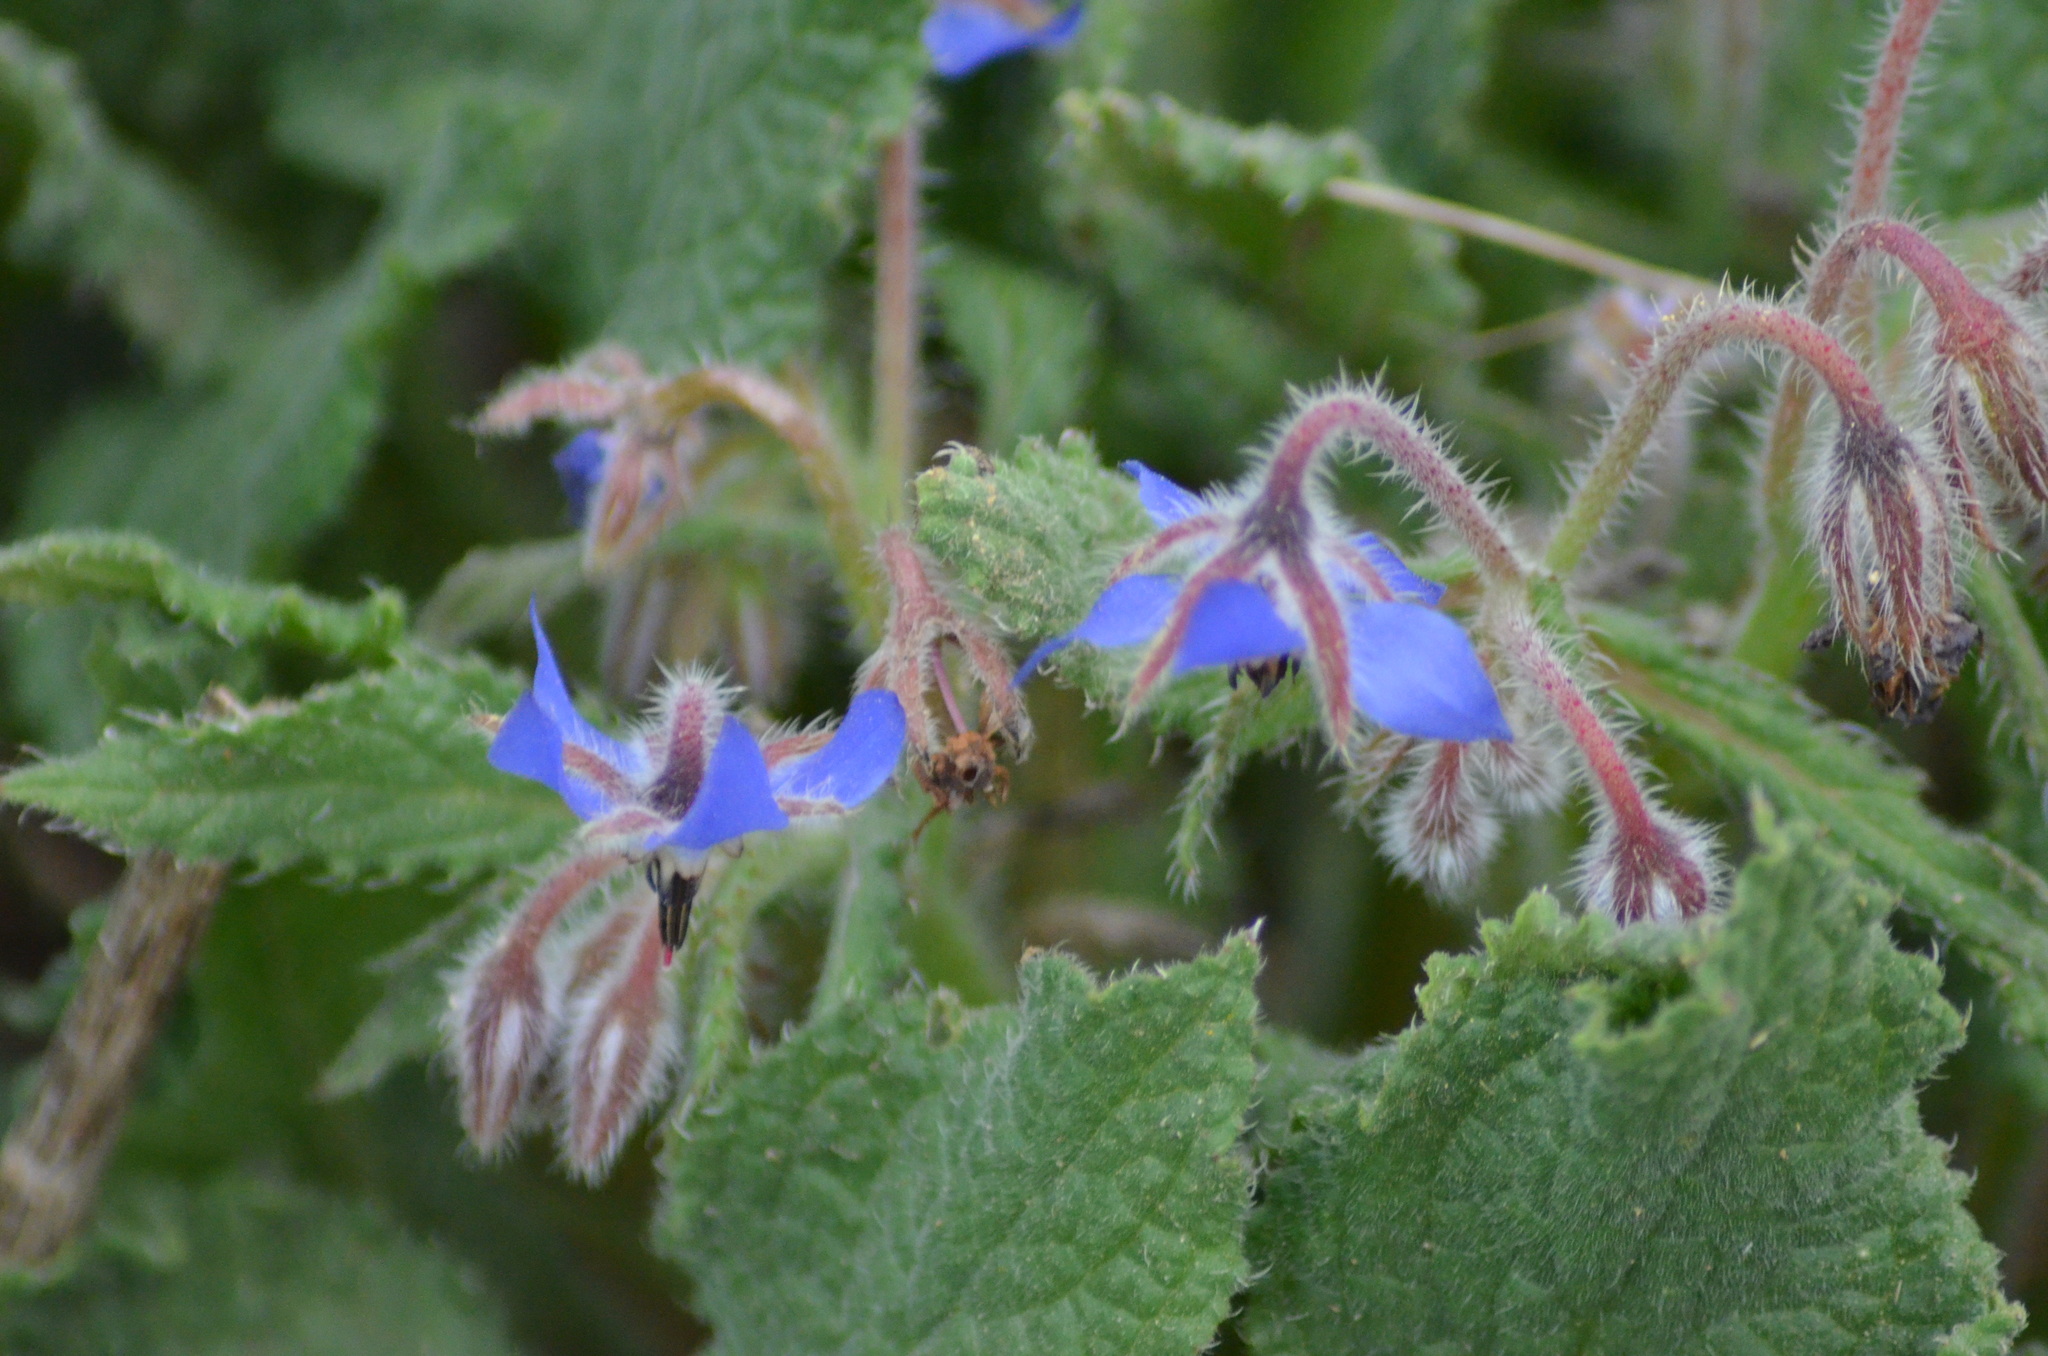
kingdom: Plantae
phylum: Tracheophyta
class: Magnoliopsida
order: Boraginales
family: Boraginaceae
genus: Borago
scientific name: Borago officinalis
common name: Borage
